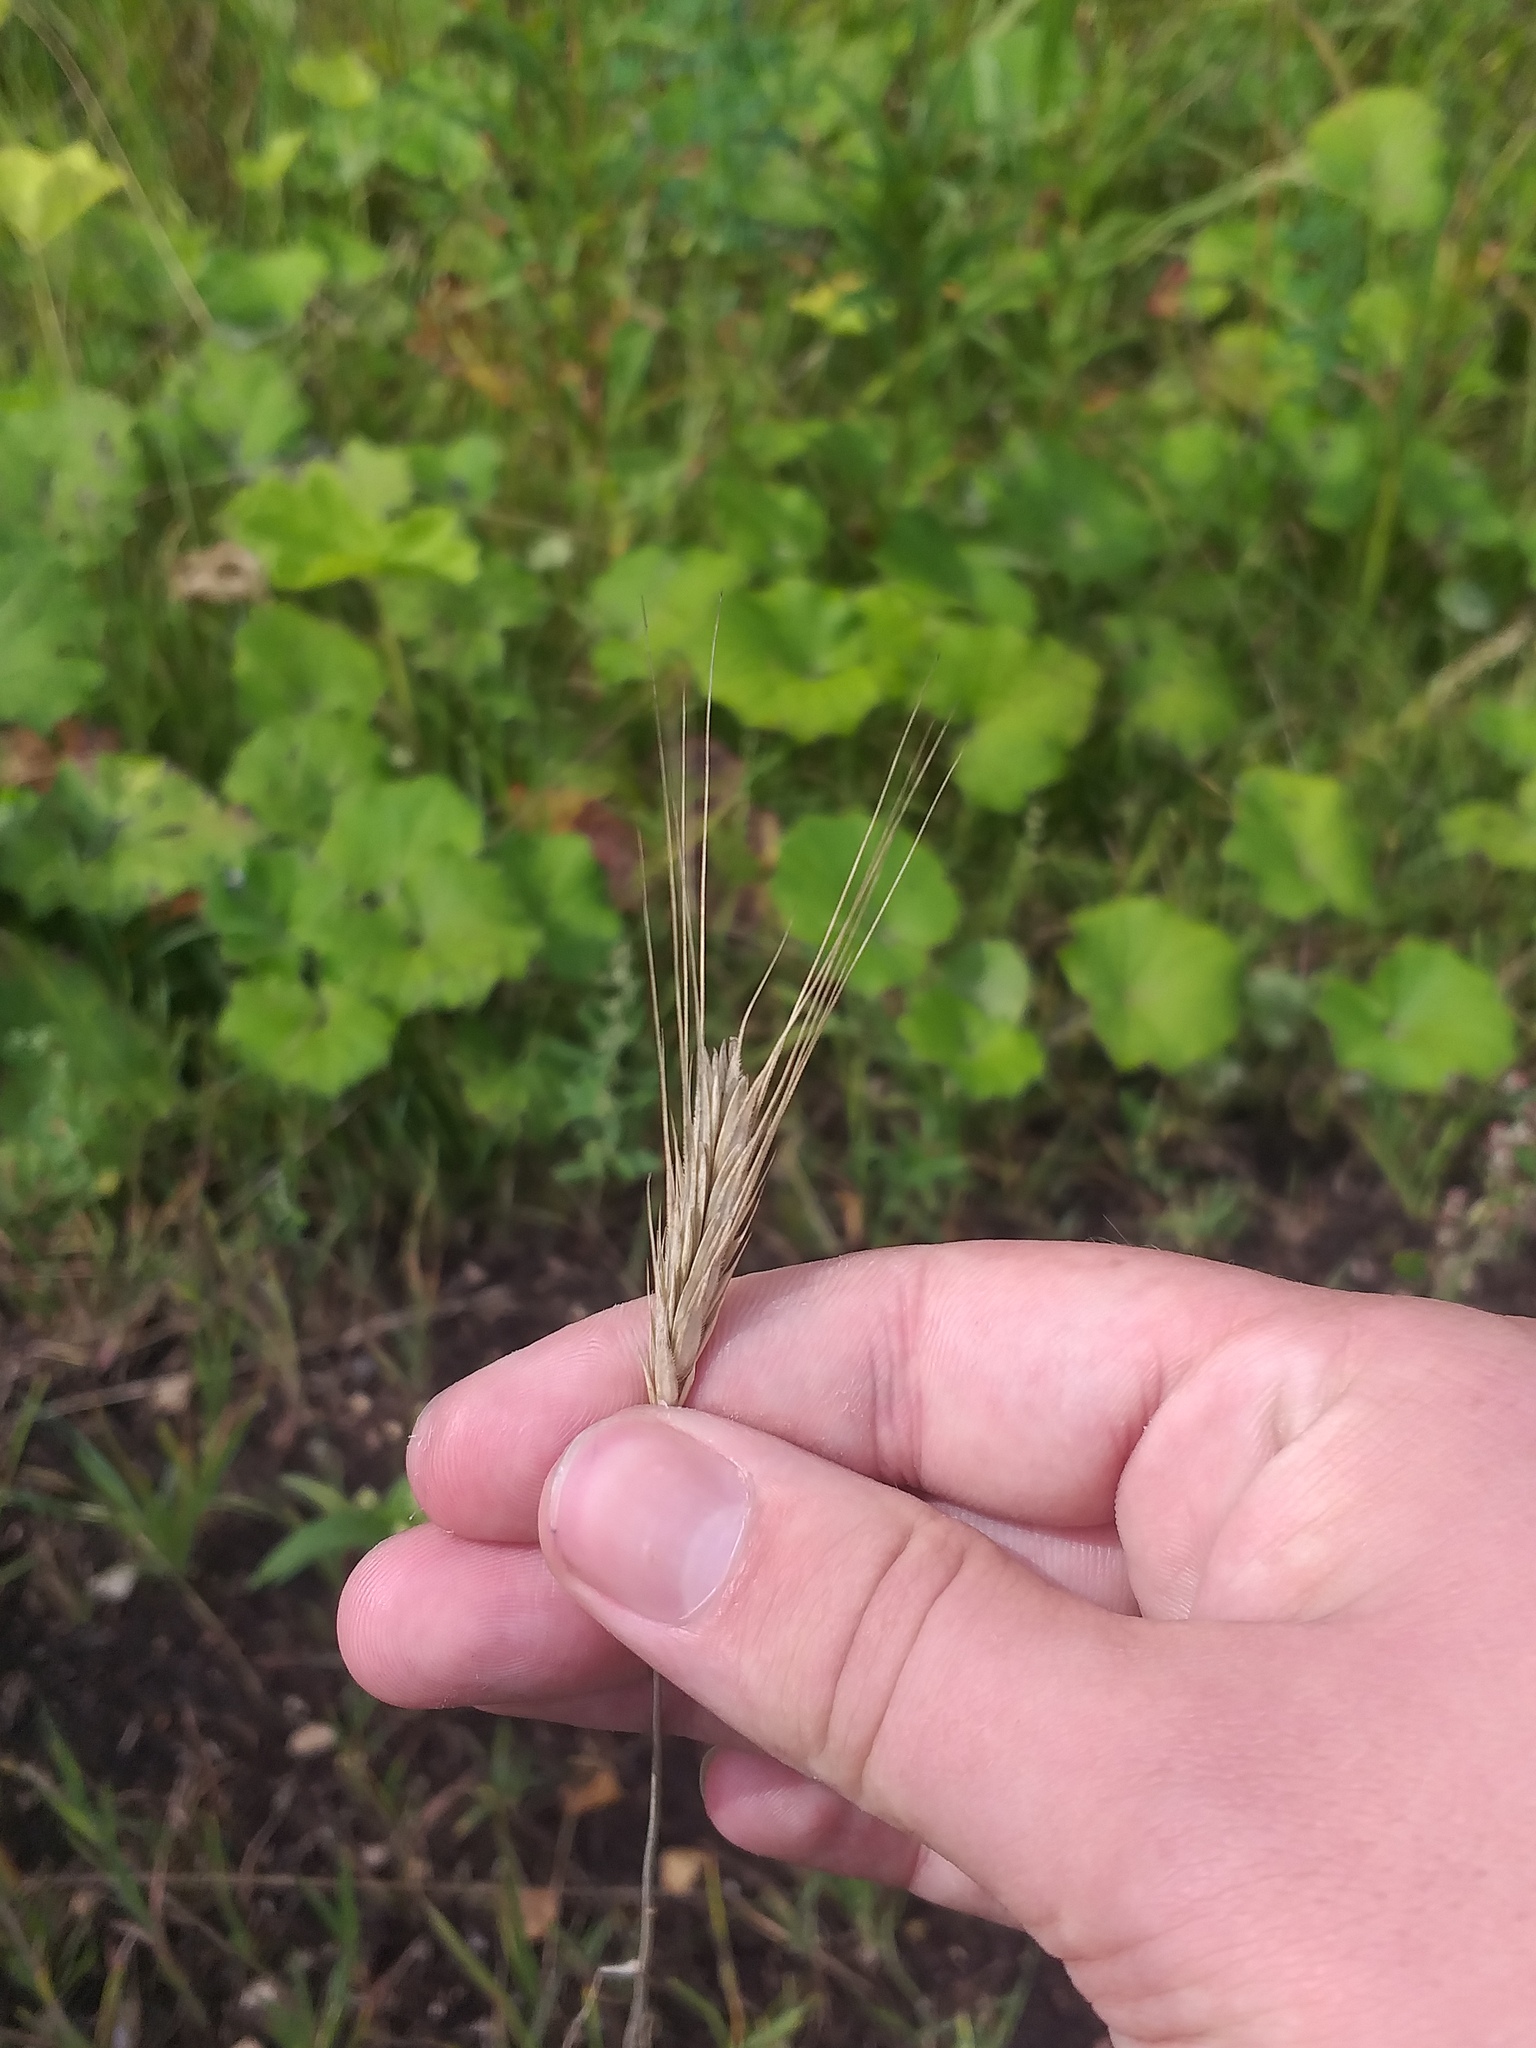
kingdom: Plantae
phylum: Tracheophyta
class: Liliopsida
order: Poales
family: Poaceae
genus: Secale
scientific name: Secale cereale
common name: Rye
